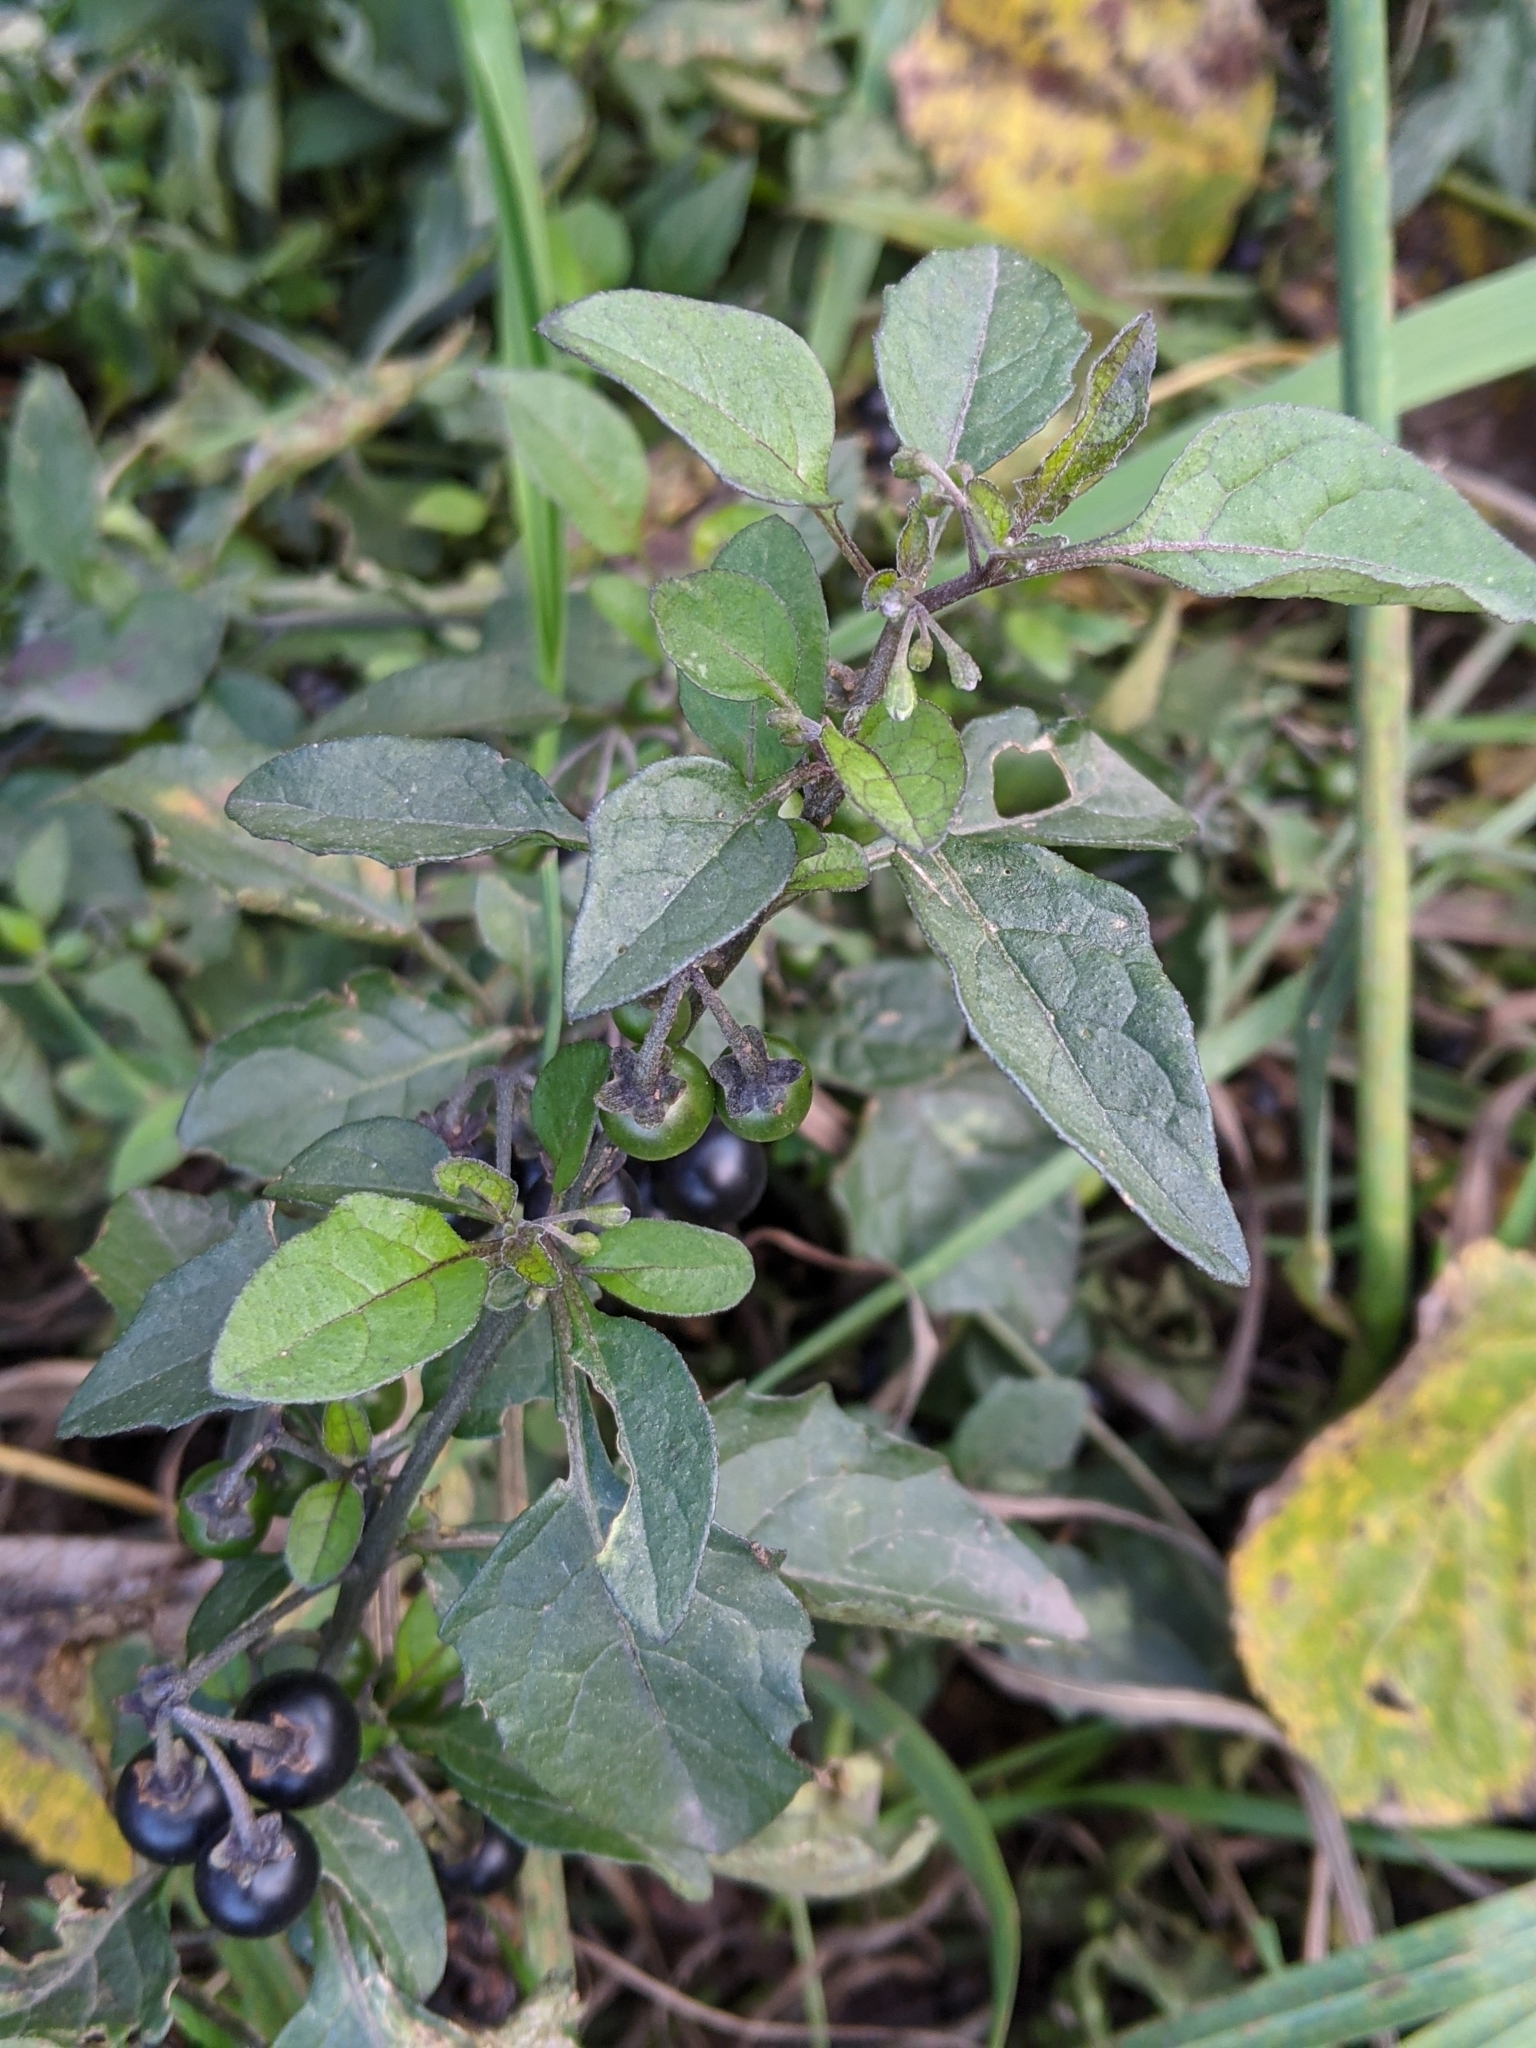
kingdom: Plantae
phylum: Tracheophyta
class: Magnoliopsida
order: Solanales
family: Solanaceae
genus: Solanum
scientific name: Solanum nigrum
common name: Black nightshade
